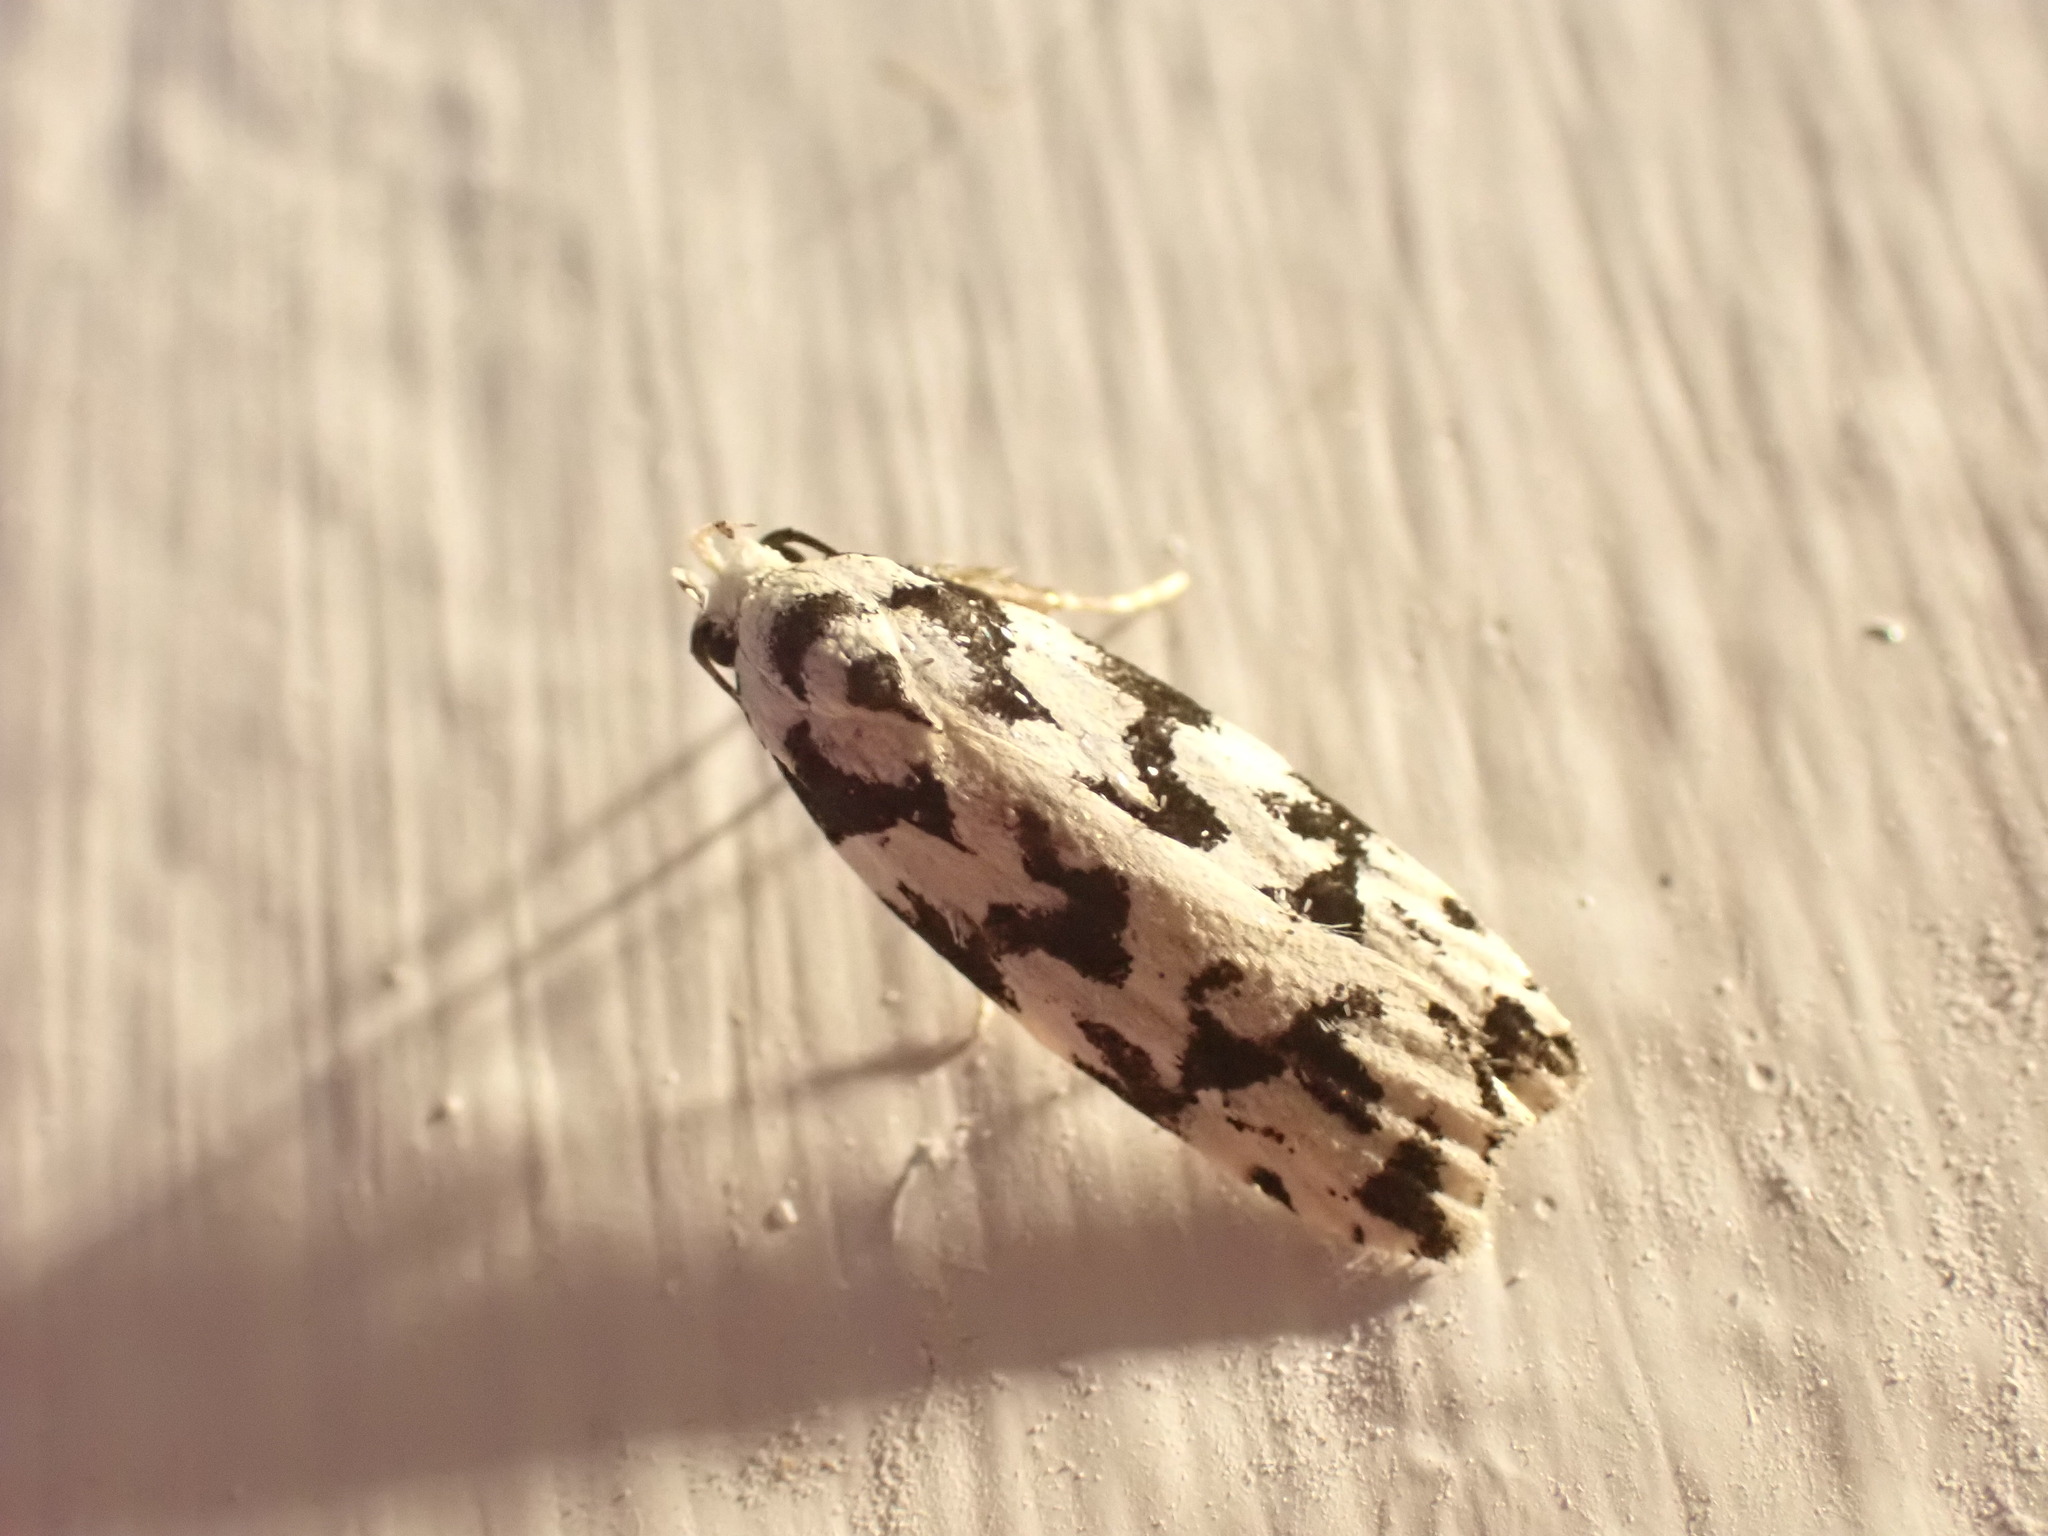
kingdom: Animalia
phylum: Arthropoda
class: Insecta
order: Lepidoptera
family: Oecophoridae
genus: Izatha
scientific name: Izatha
